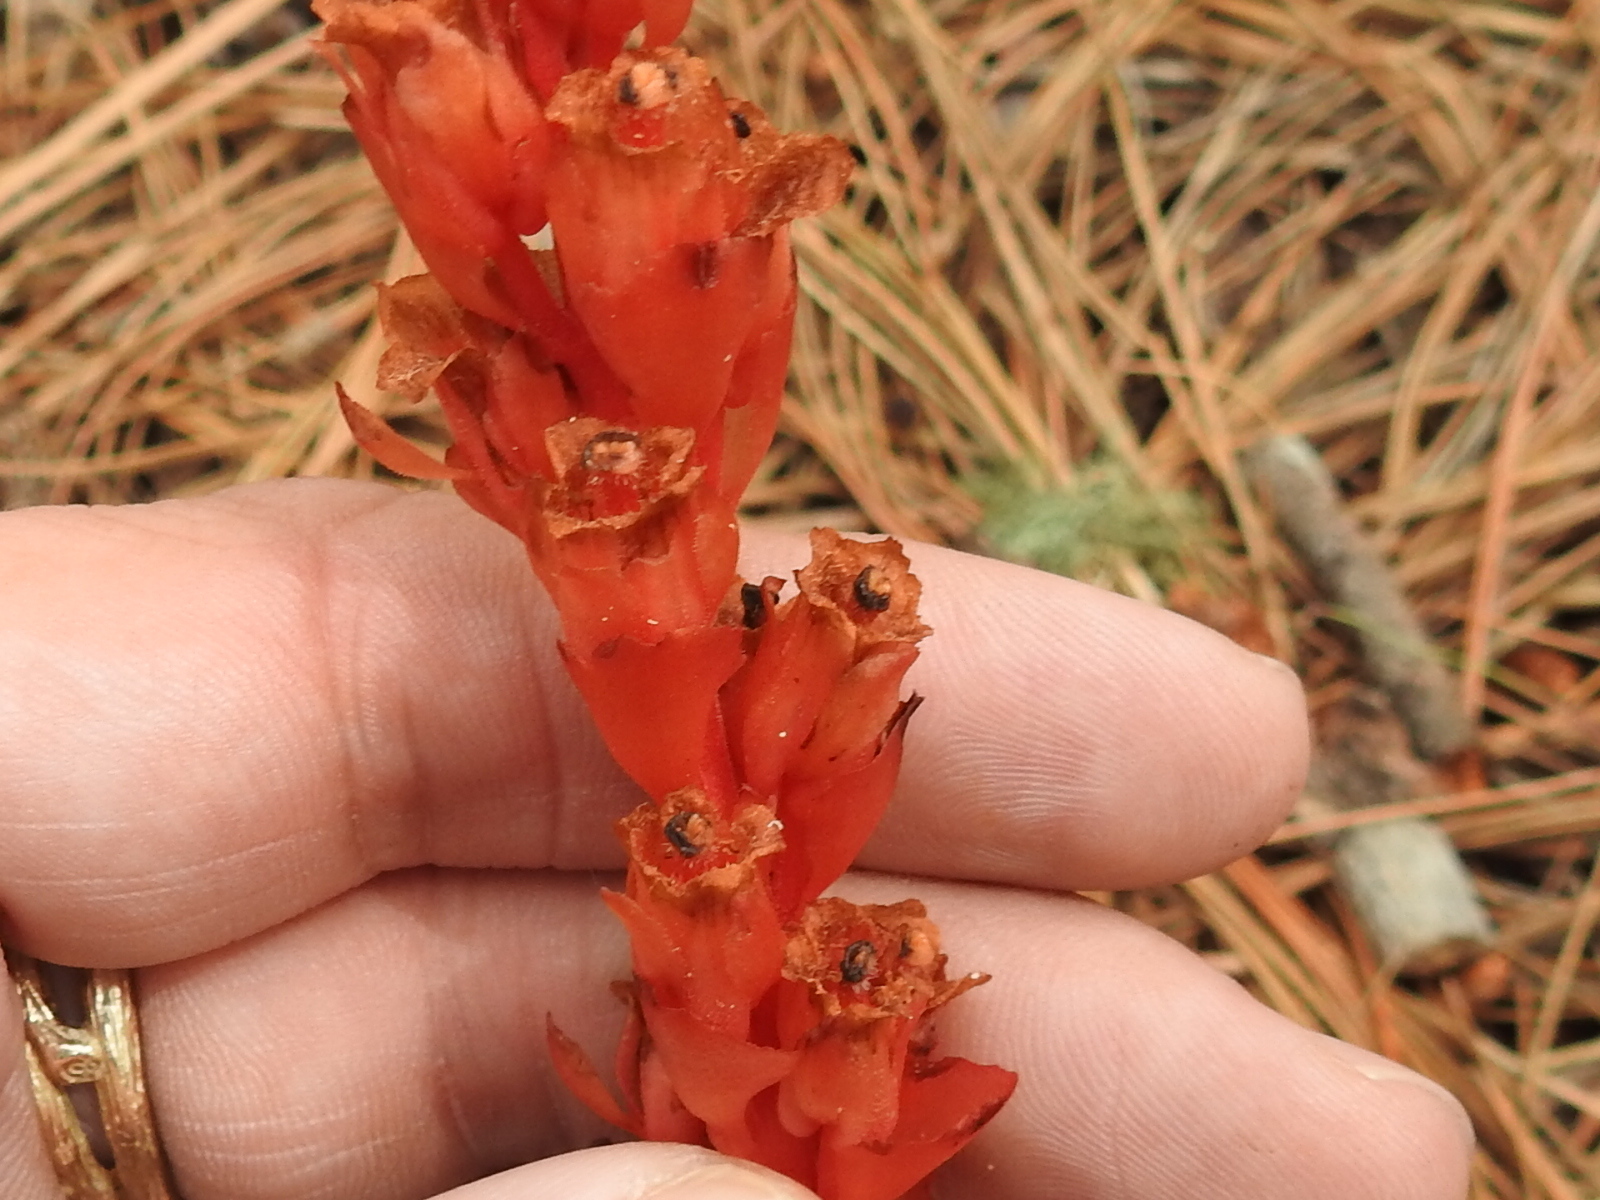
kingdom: Plantae
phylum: Tracheophyta
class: Magnoliopsida
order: Ericales
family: Ericaceae
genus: Hypopitys
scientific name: Hypopitys monotropa
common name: Yellow bird's-nest
